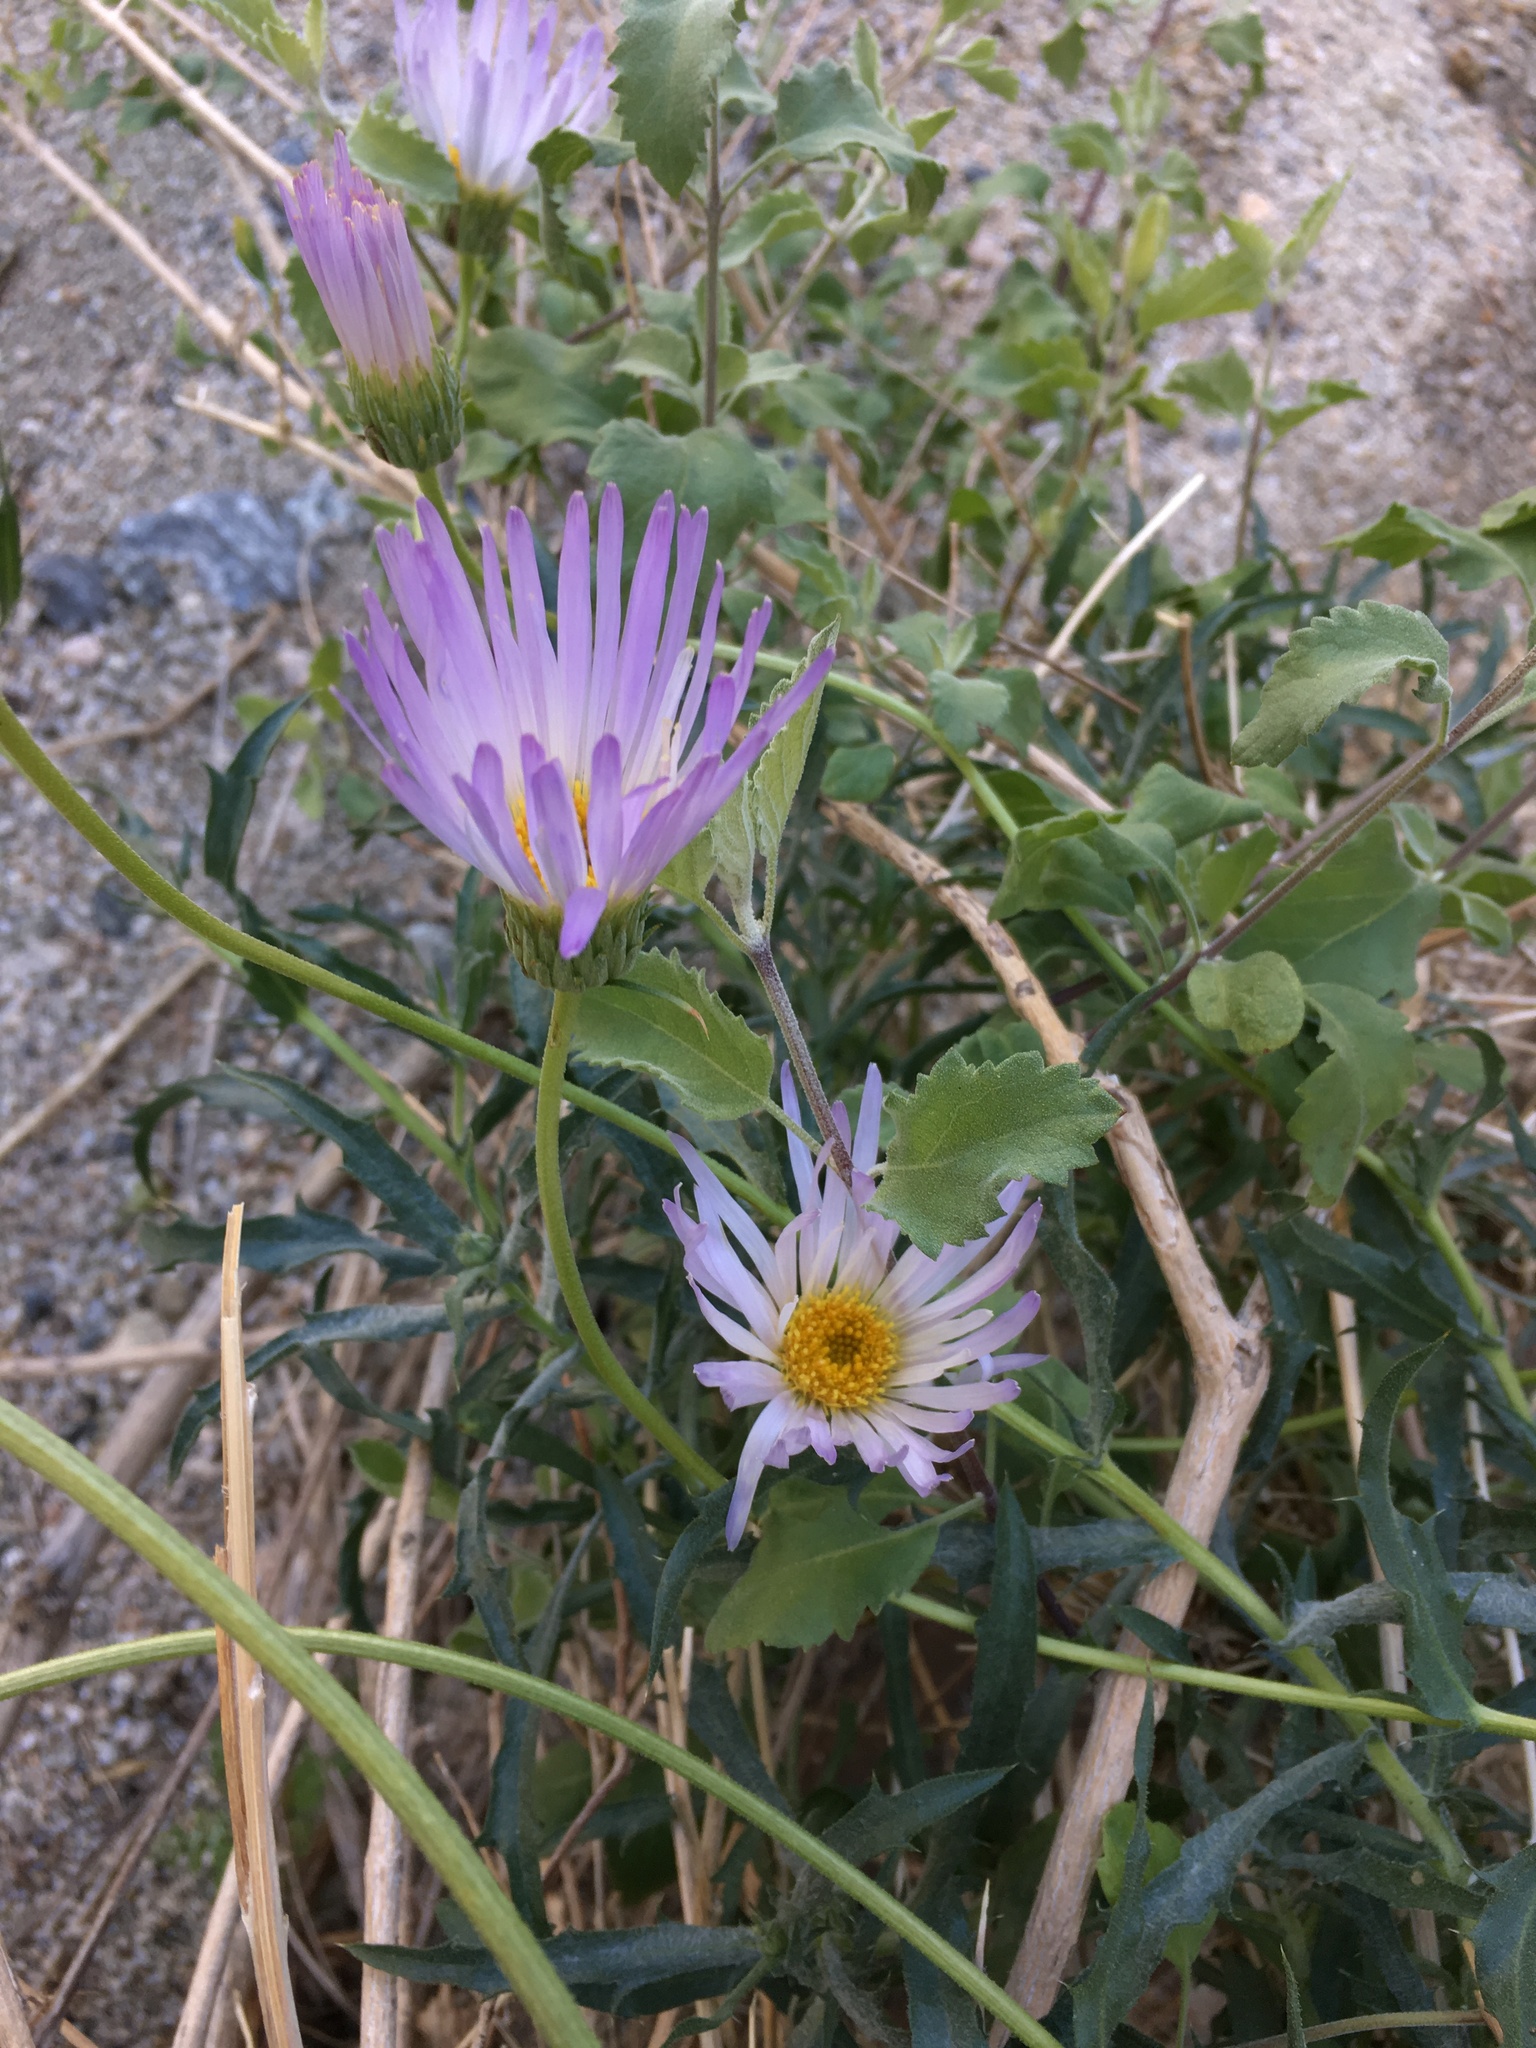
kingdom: Plantae
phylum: Tracheophyta
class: Magnoliopsida
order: Asterales
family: Asteraceae
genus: Xylorhiza
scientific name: Xylorhiza tortifolia
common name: Hurt-leaf woody-aster
